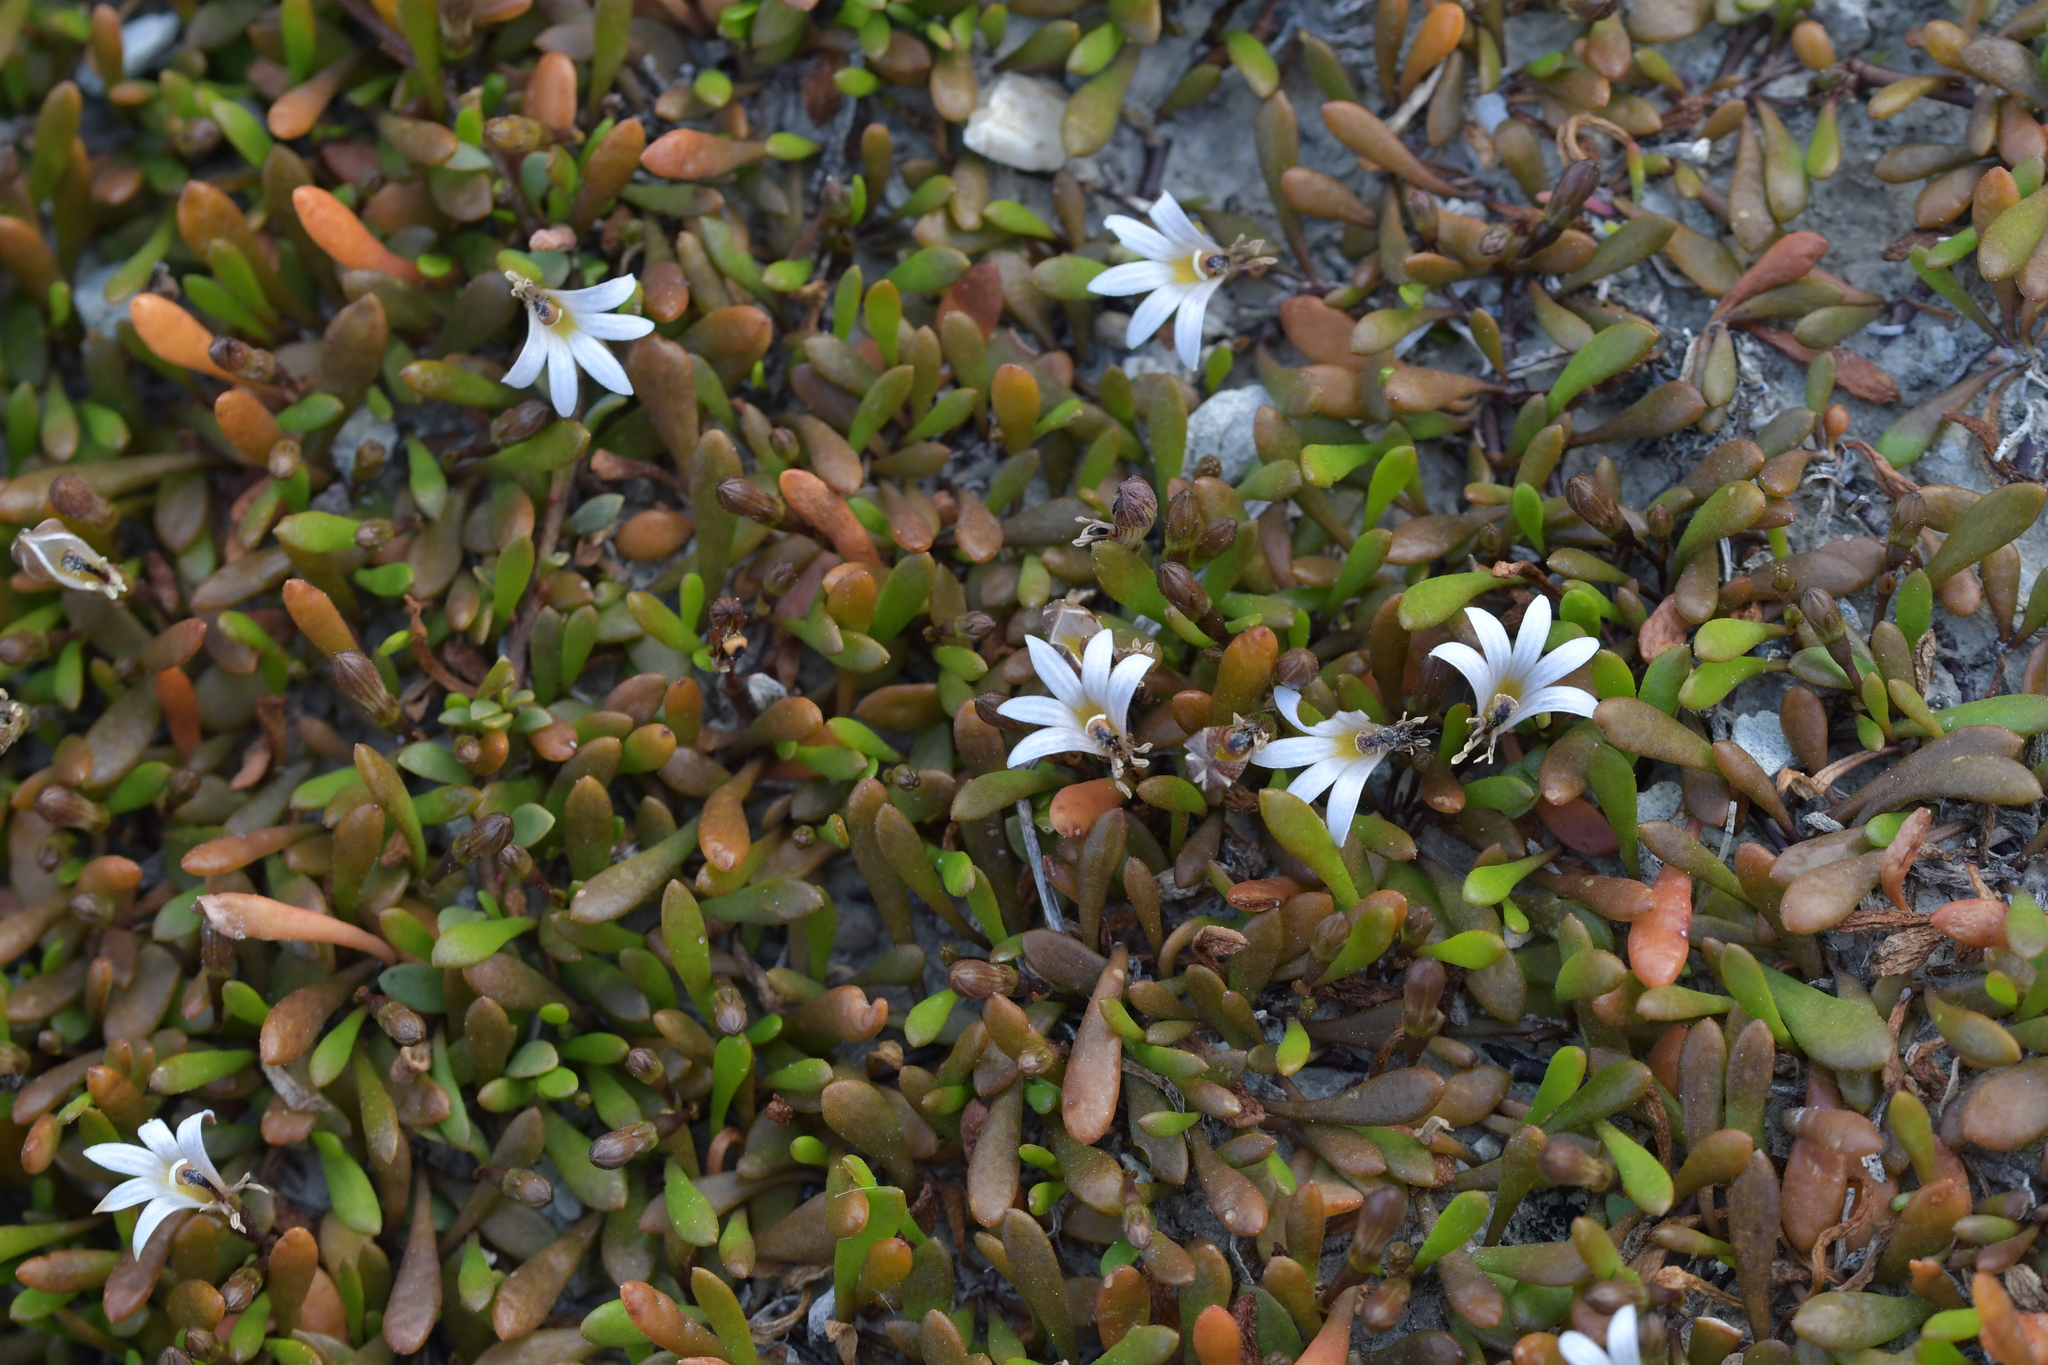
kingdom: Plantae
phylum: Tracheophyta
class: Magnoliopsida
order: Asterales
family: Goodeniaceae
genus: Goodenia
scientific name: Goodenia radicans
